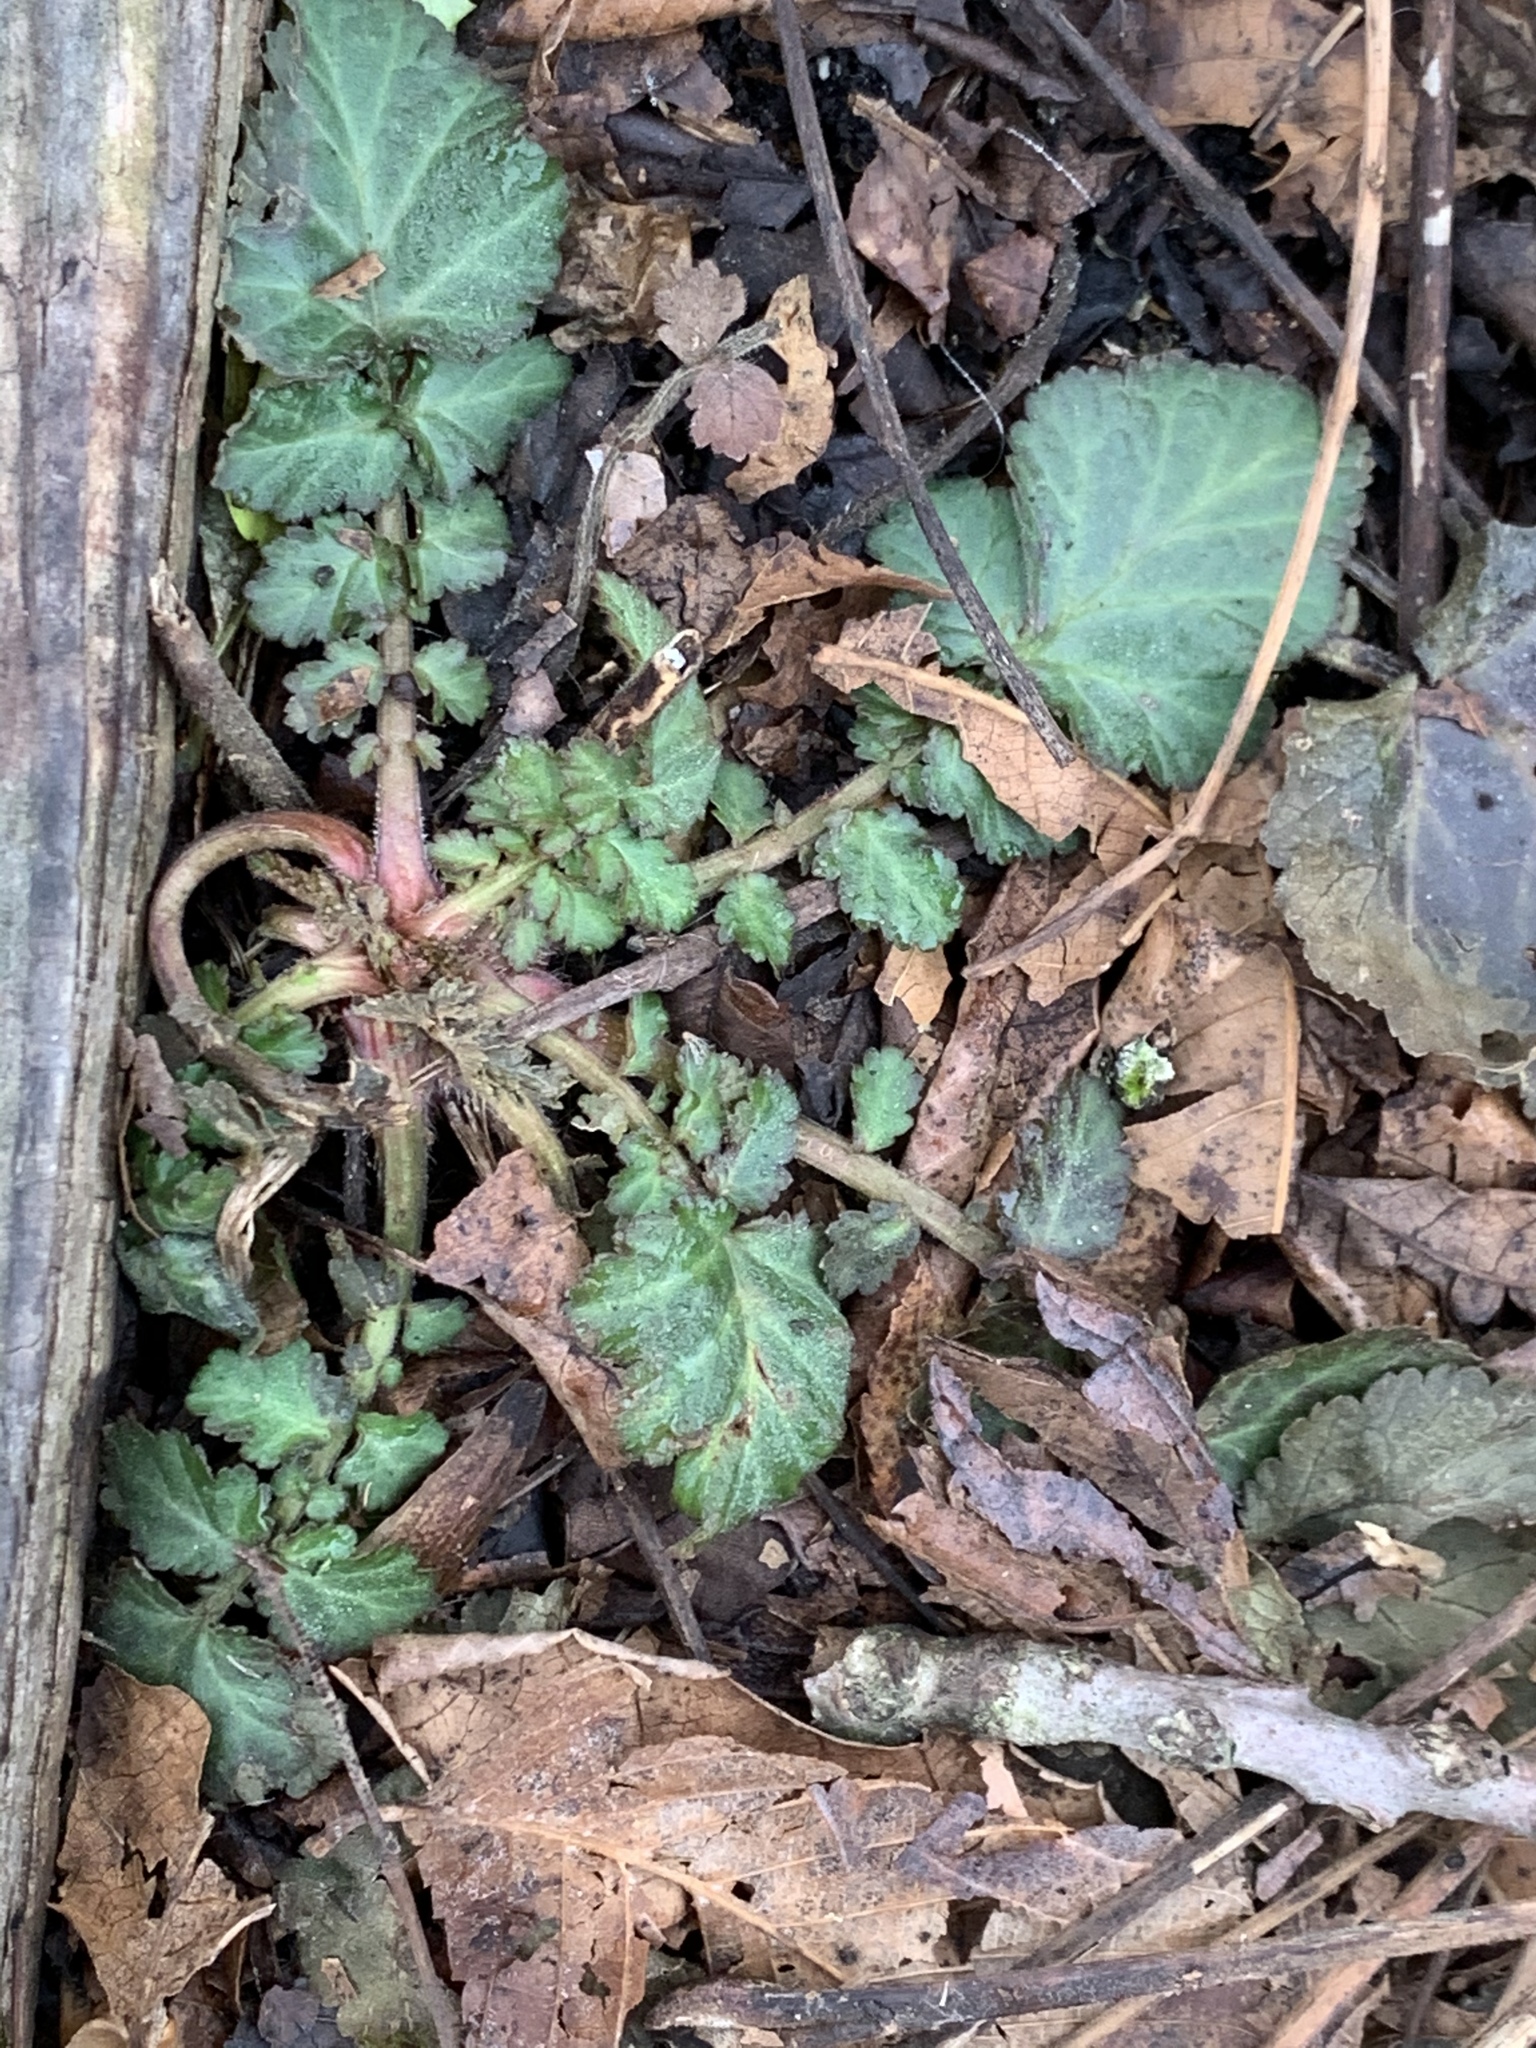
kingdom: Plantae
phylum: Tracheophyta
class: Magnoliopsida
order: Rosales
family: Rosaceae
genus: Geum
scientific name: Geum canadense
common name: White avens
